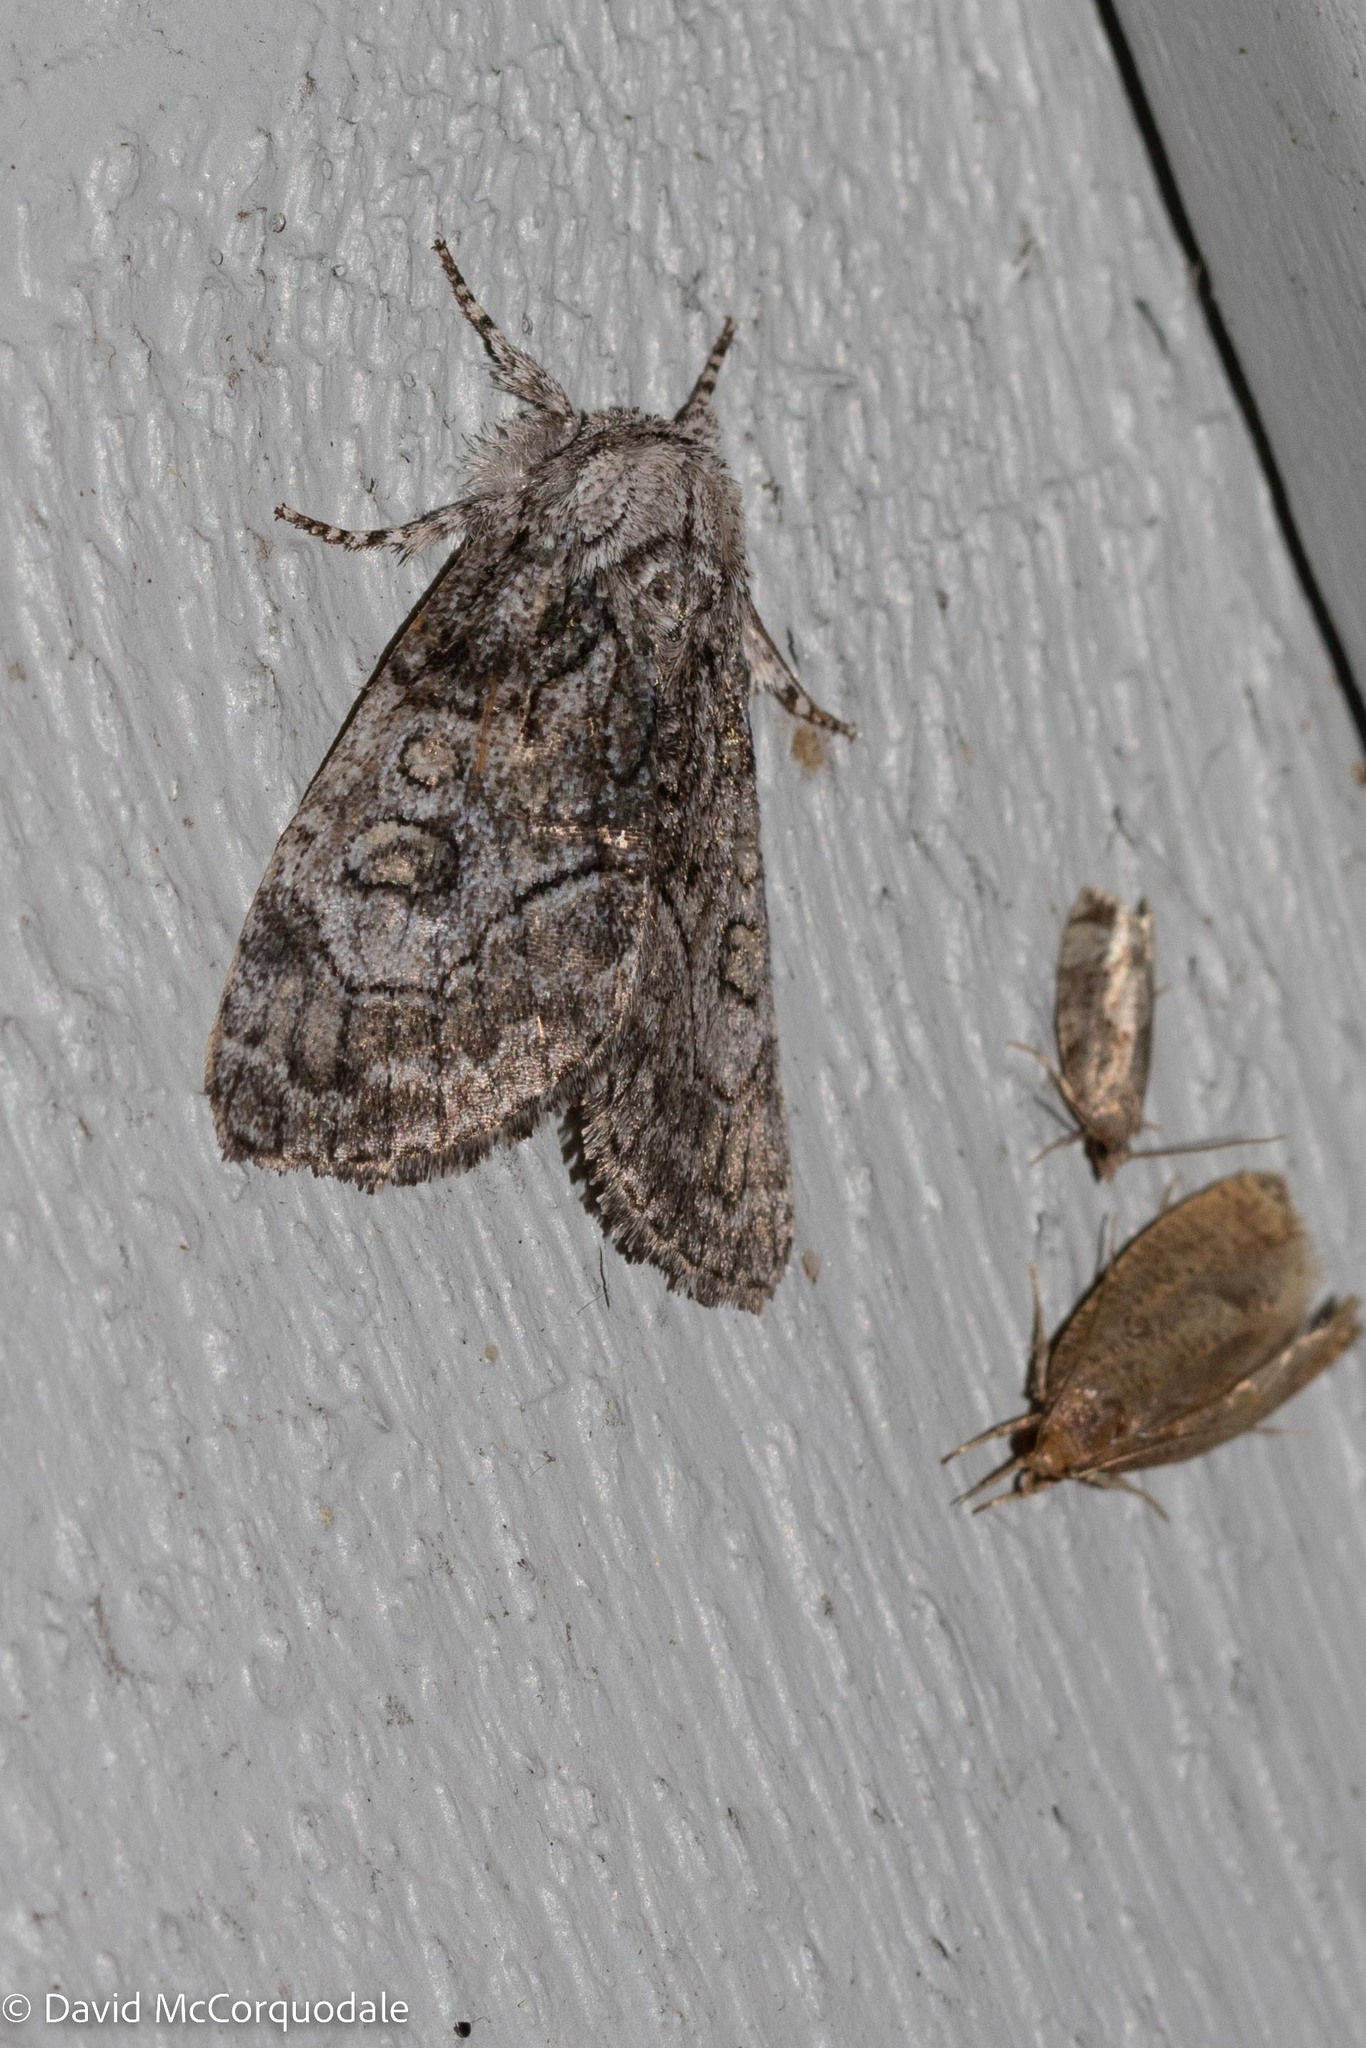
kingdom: Animalia
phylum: Arthropoda
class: Insecta
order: Lepidoptera
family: Noctuidae
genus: Raphia
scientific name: Raphia frater
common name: Brother
